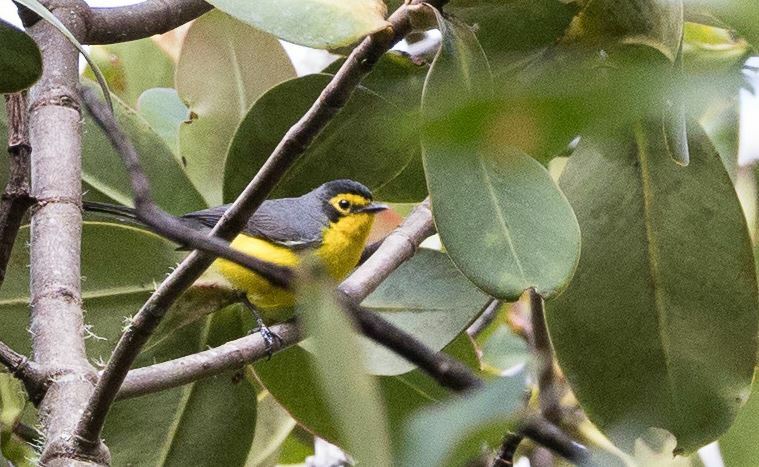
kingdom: Animalia
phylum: Chordata
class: Aves
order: Passeriformes
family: Parulidae
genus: Myioborus
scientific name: Myioborus melanocephalus
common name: Spectacled whitestart
